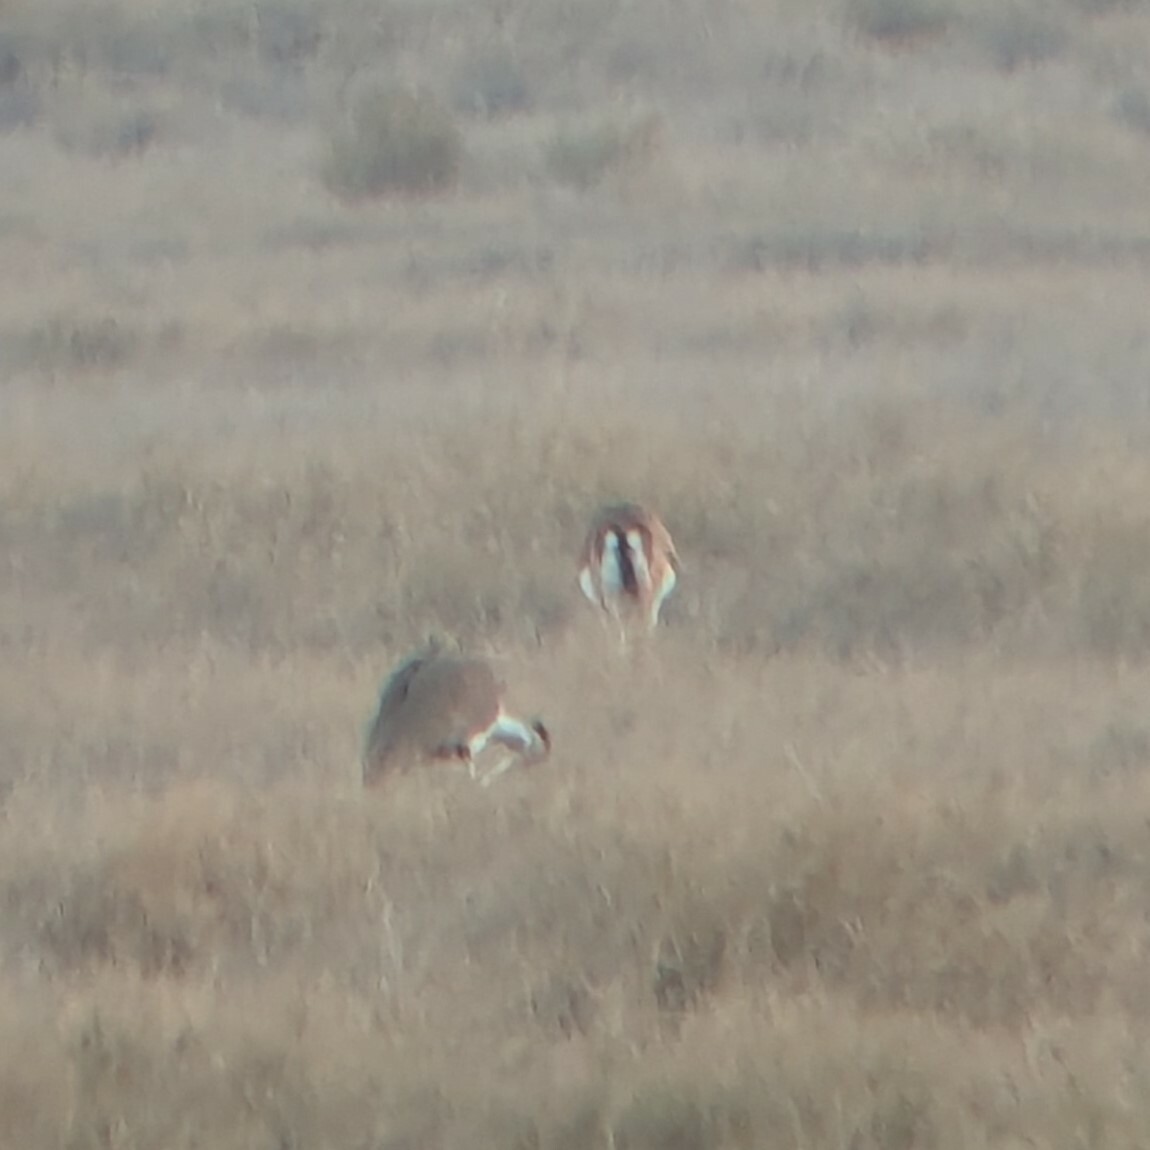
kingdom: Animalia
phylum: Chordata
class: Mammalia
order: Artiodactyla
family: Bovidae
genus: Gazella
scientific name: Gazella bennettii
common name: Indian gazelle
